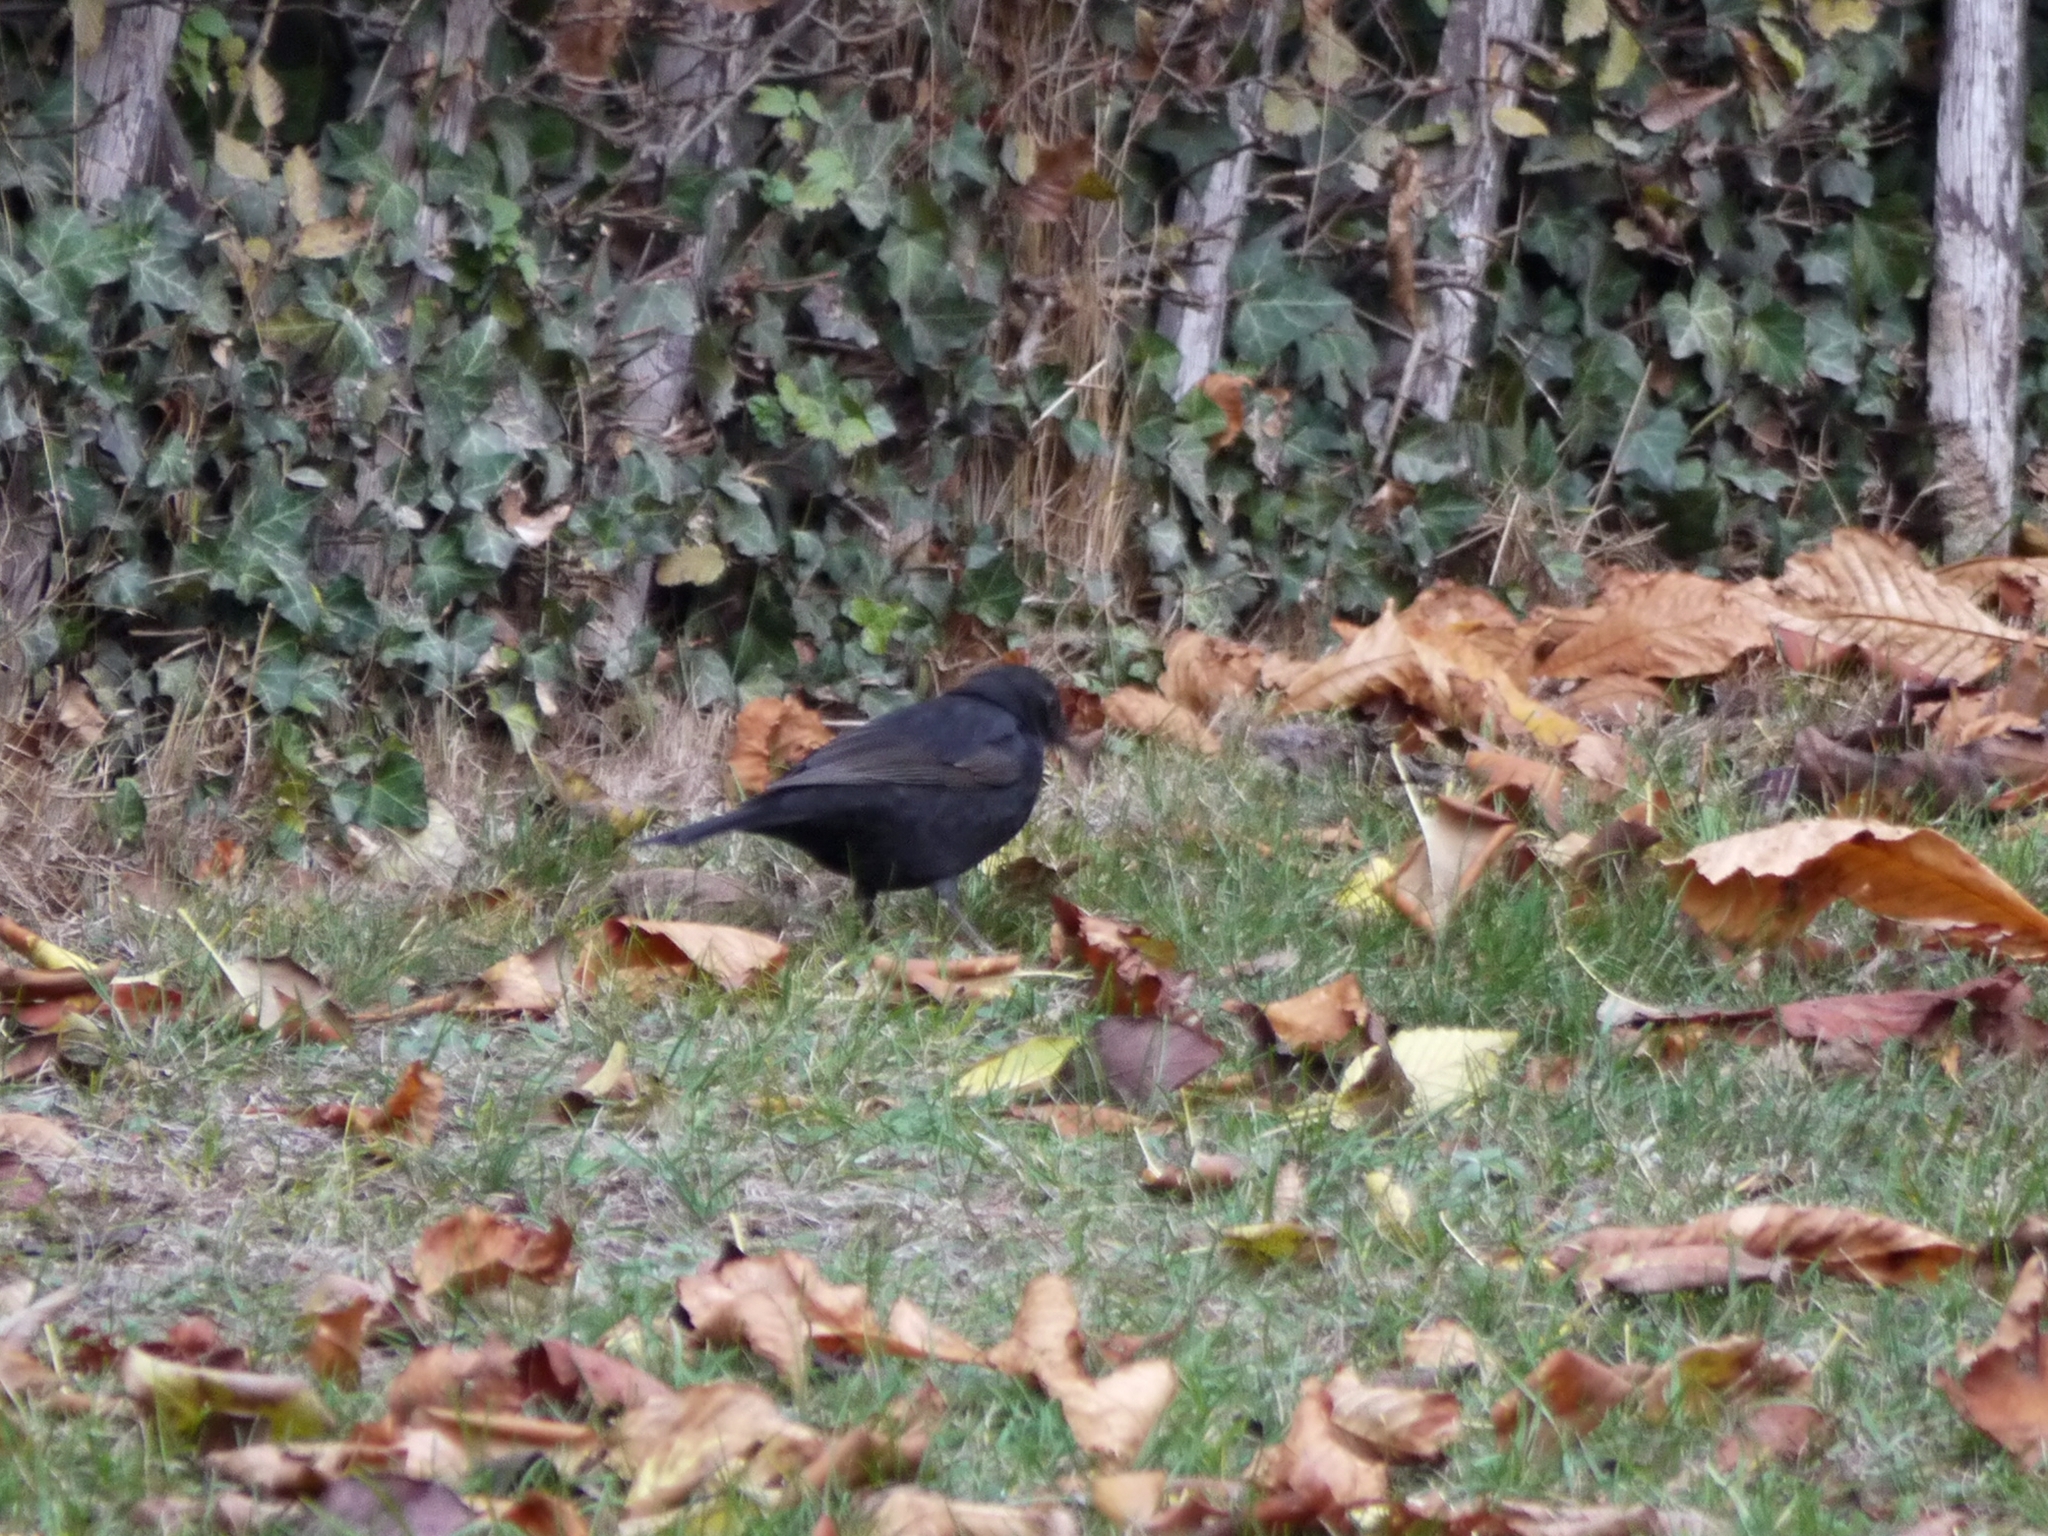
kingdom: Animalia
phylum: Chordata
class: Aves
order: Passeriformes
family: Turdidae
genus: Turdus
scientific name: Turdus merula
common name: Common blackbird
